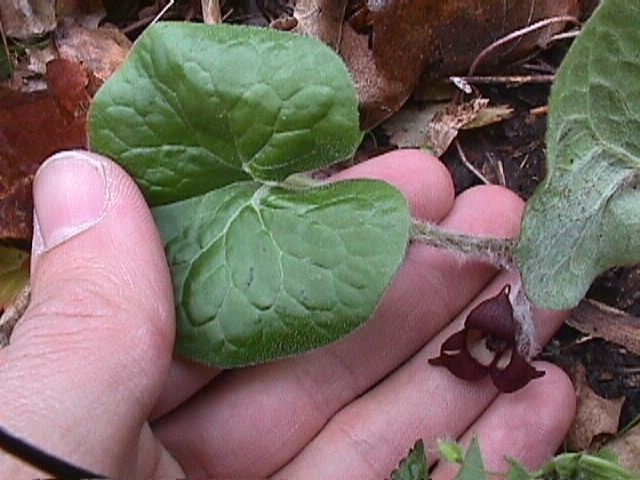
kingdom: Plantae
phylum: Tracheophyta
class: Magnoliopsida
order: Piperales
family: Aristolochiaceae
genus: Asarum
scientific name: Asarum canadense
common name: Wild ginger
